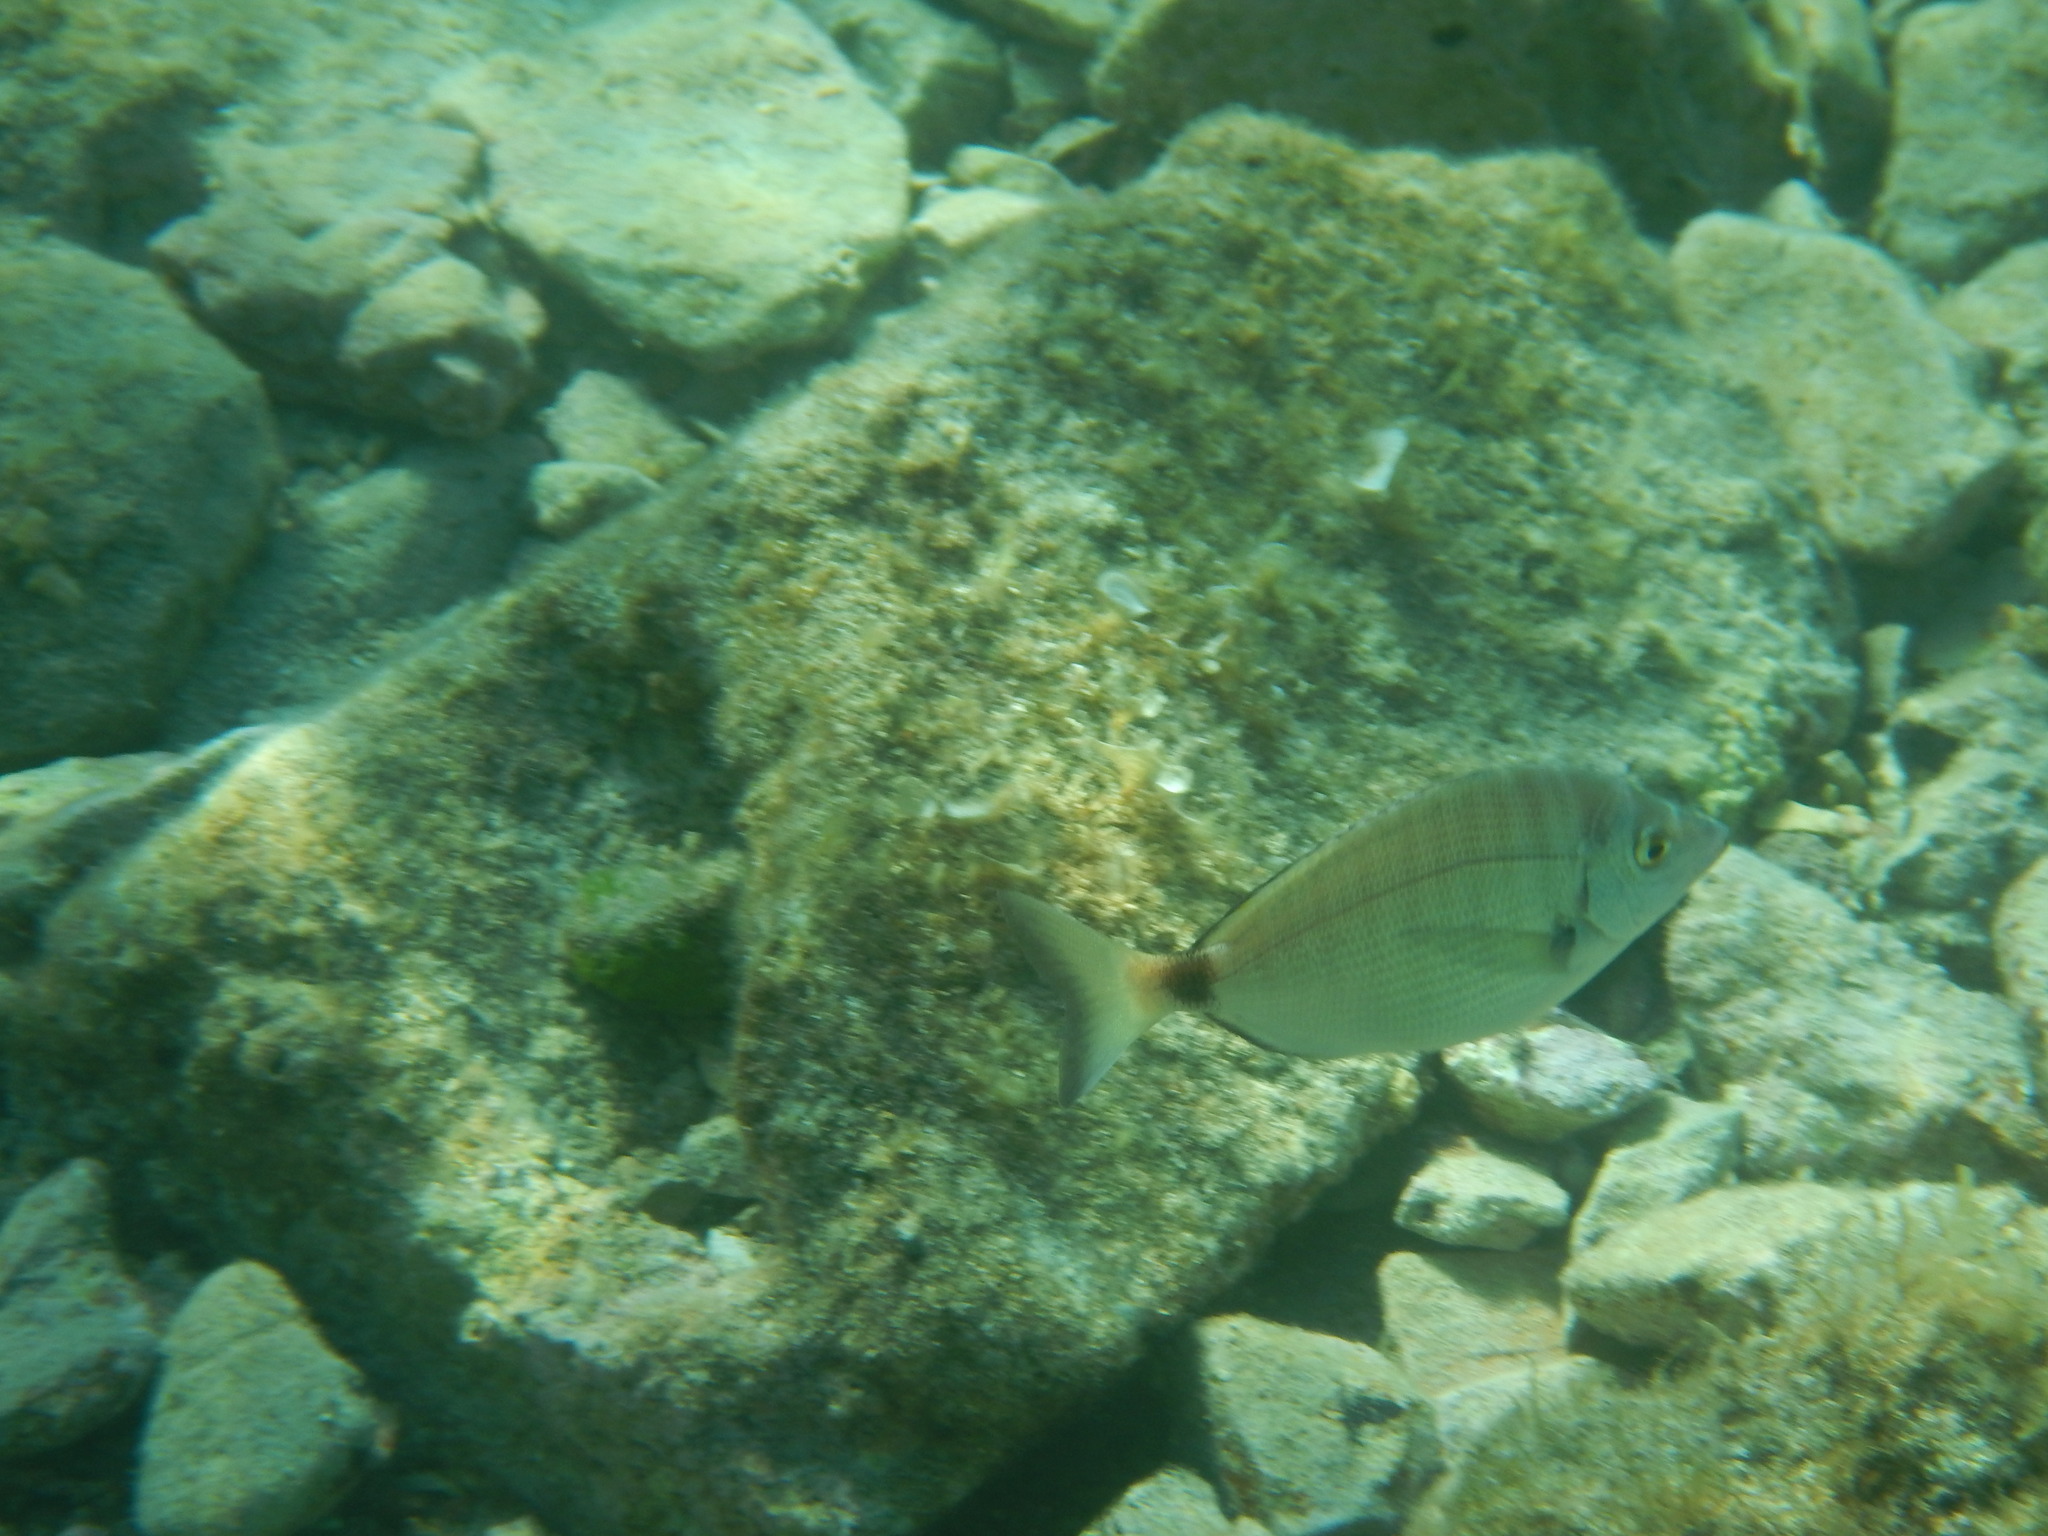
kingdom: Animalia
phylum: Chordata
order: Perciformes
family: Sparidae
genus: Diplodus
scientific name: Diplodus puntazzo
